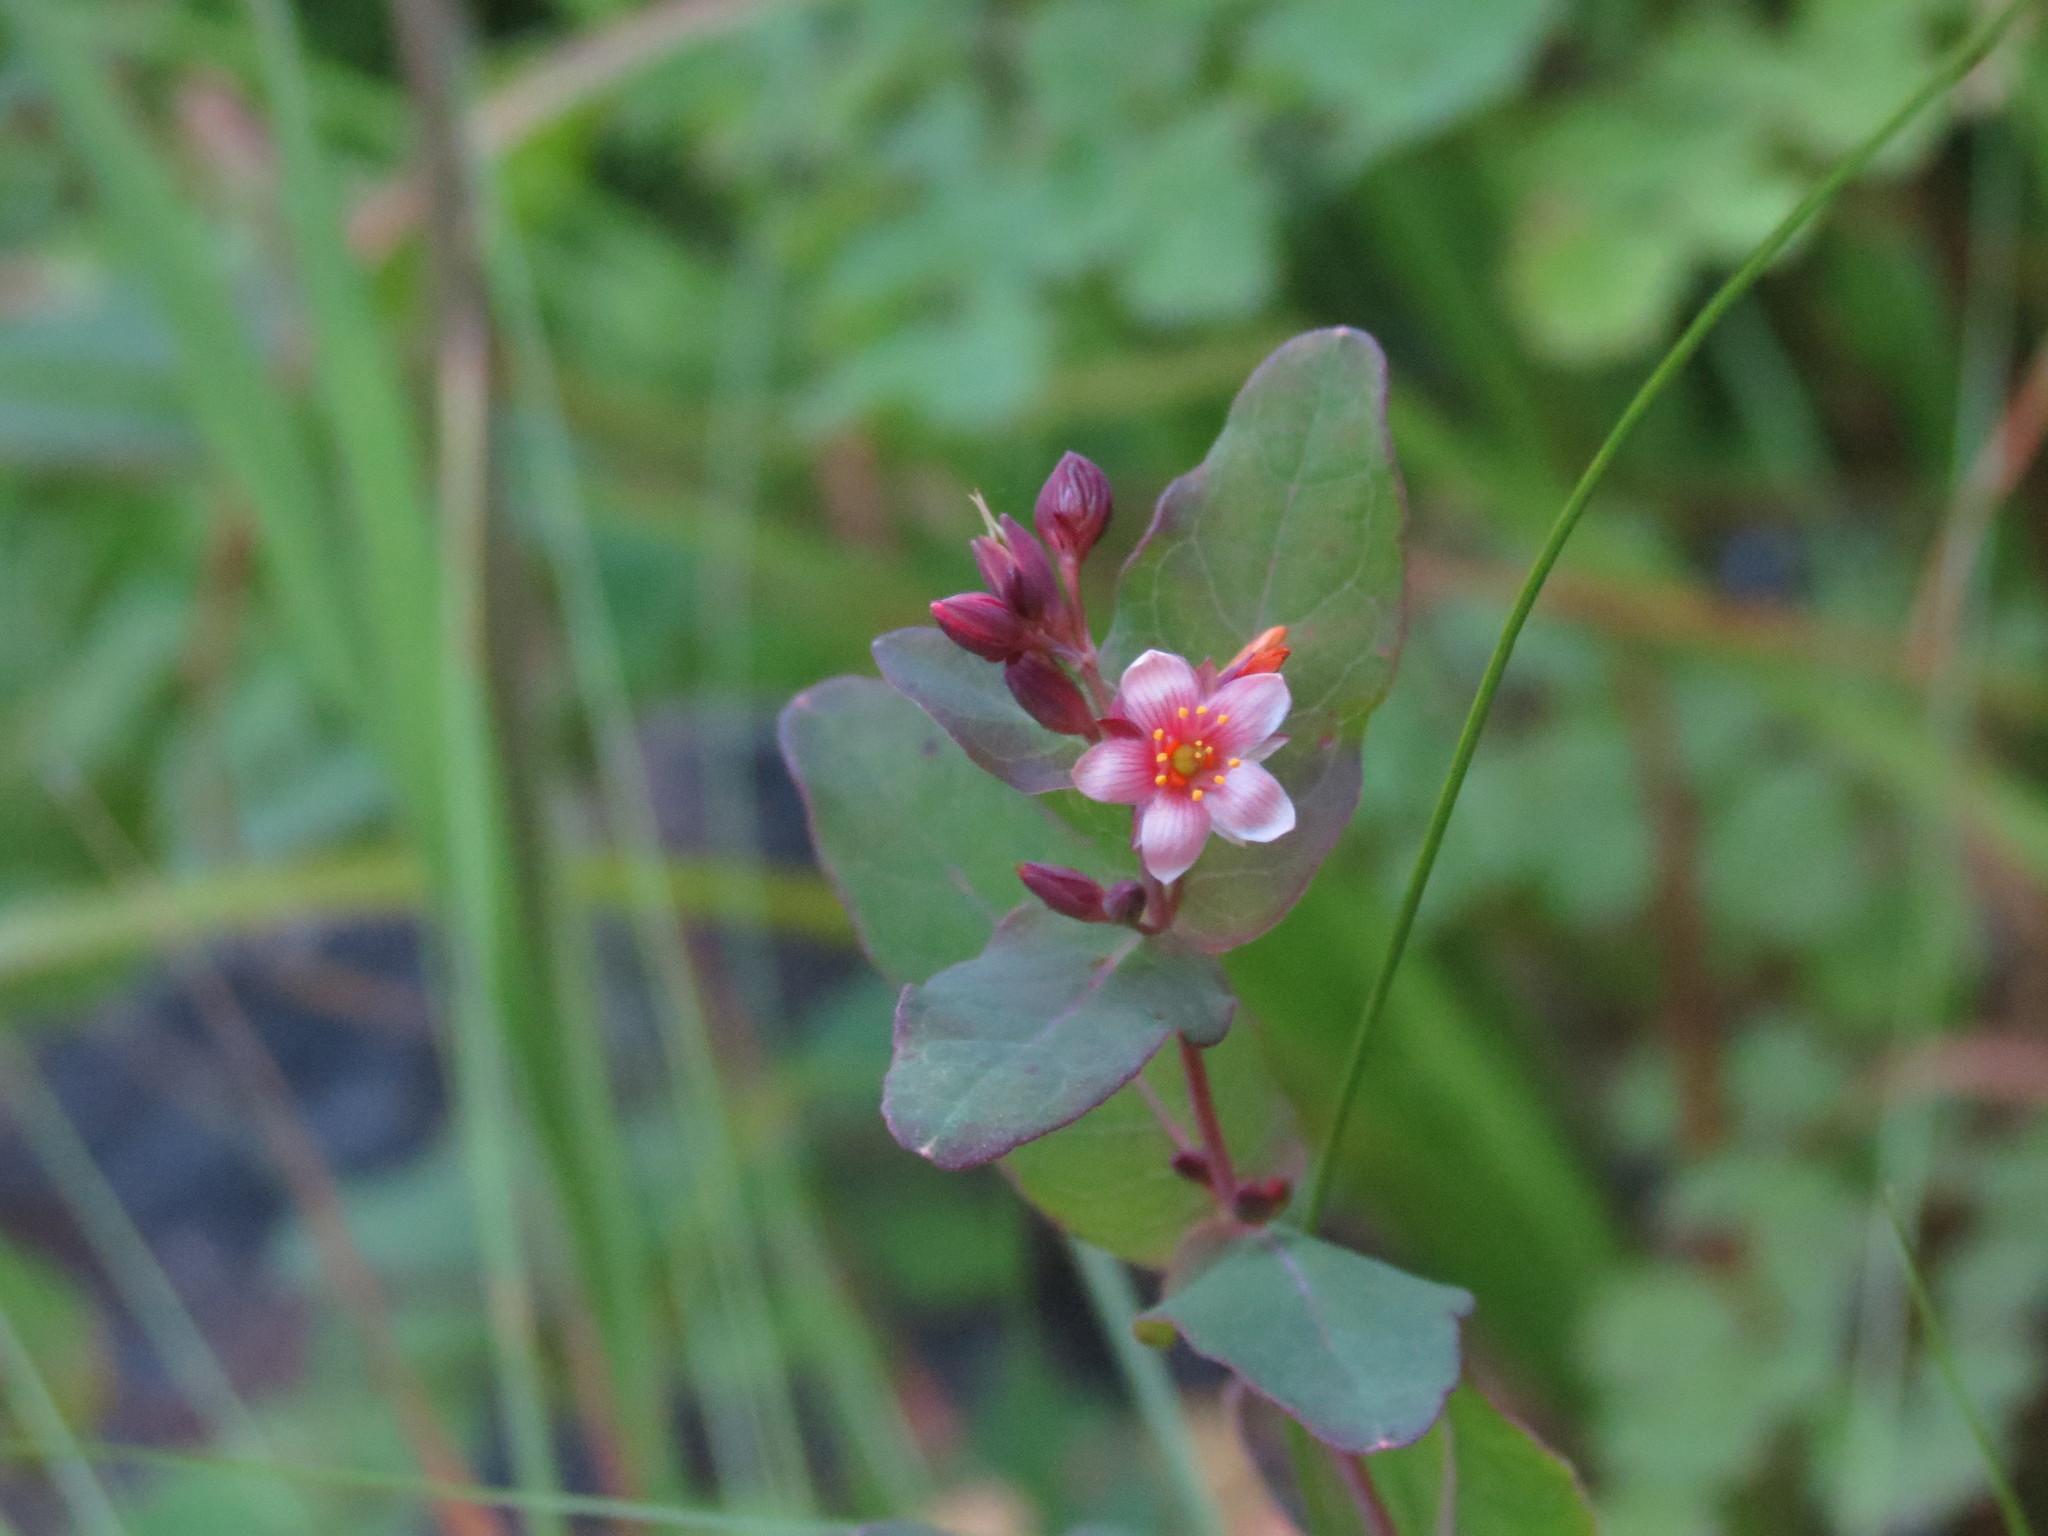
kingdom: Plantae
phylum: Tracheophyta
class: Magnoliopsida
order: Malpighiales
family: Hypericaceae
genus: Triadenum
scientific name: Triadenum fraseri
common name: Fraser's marsh st. johnswort
